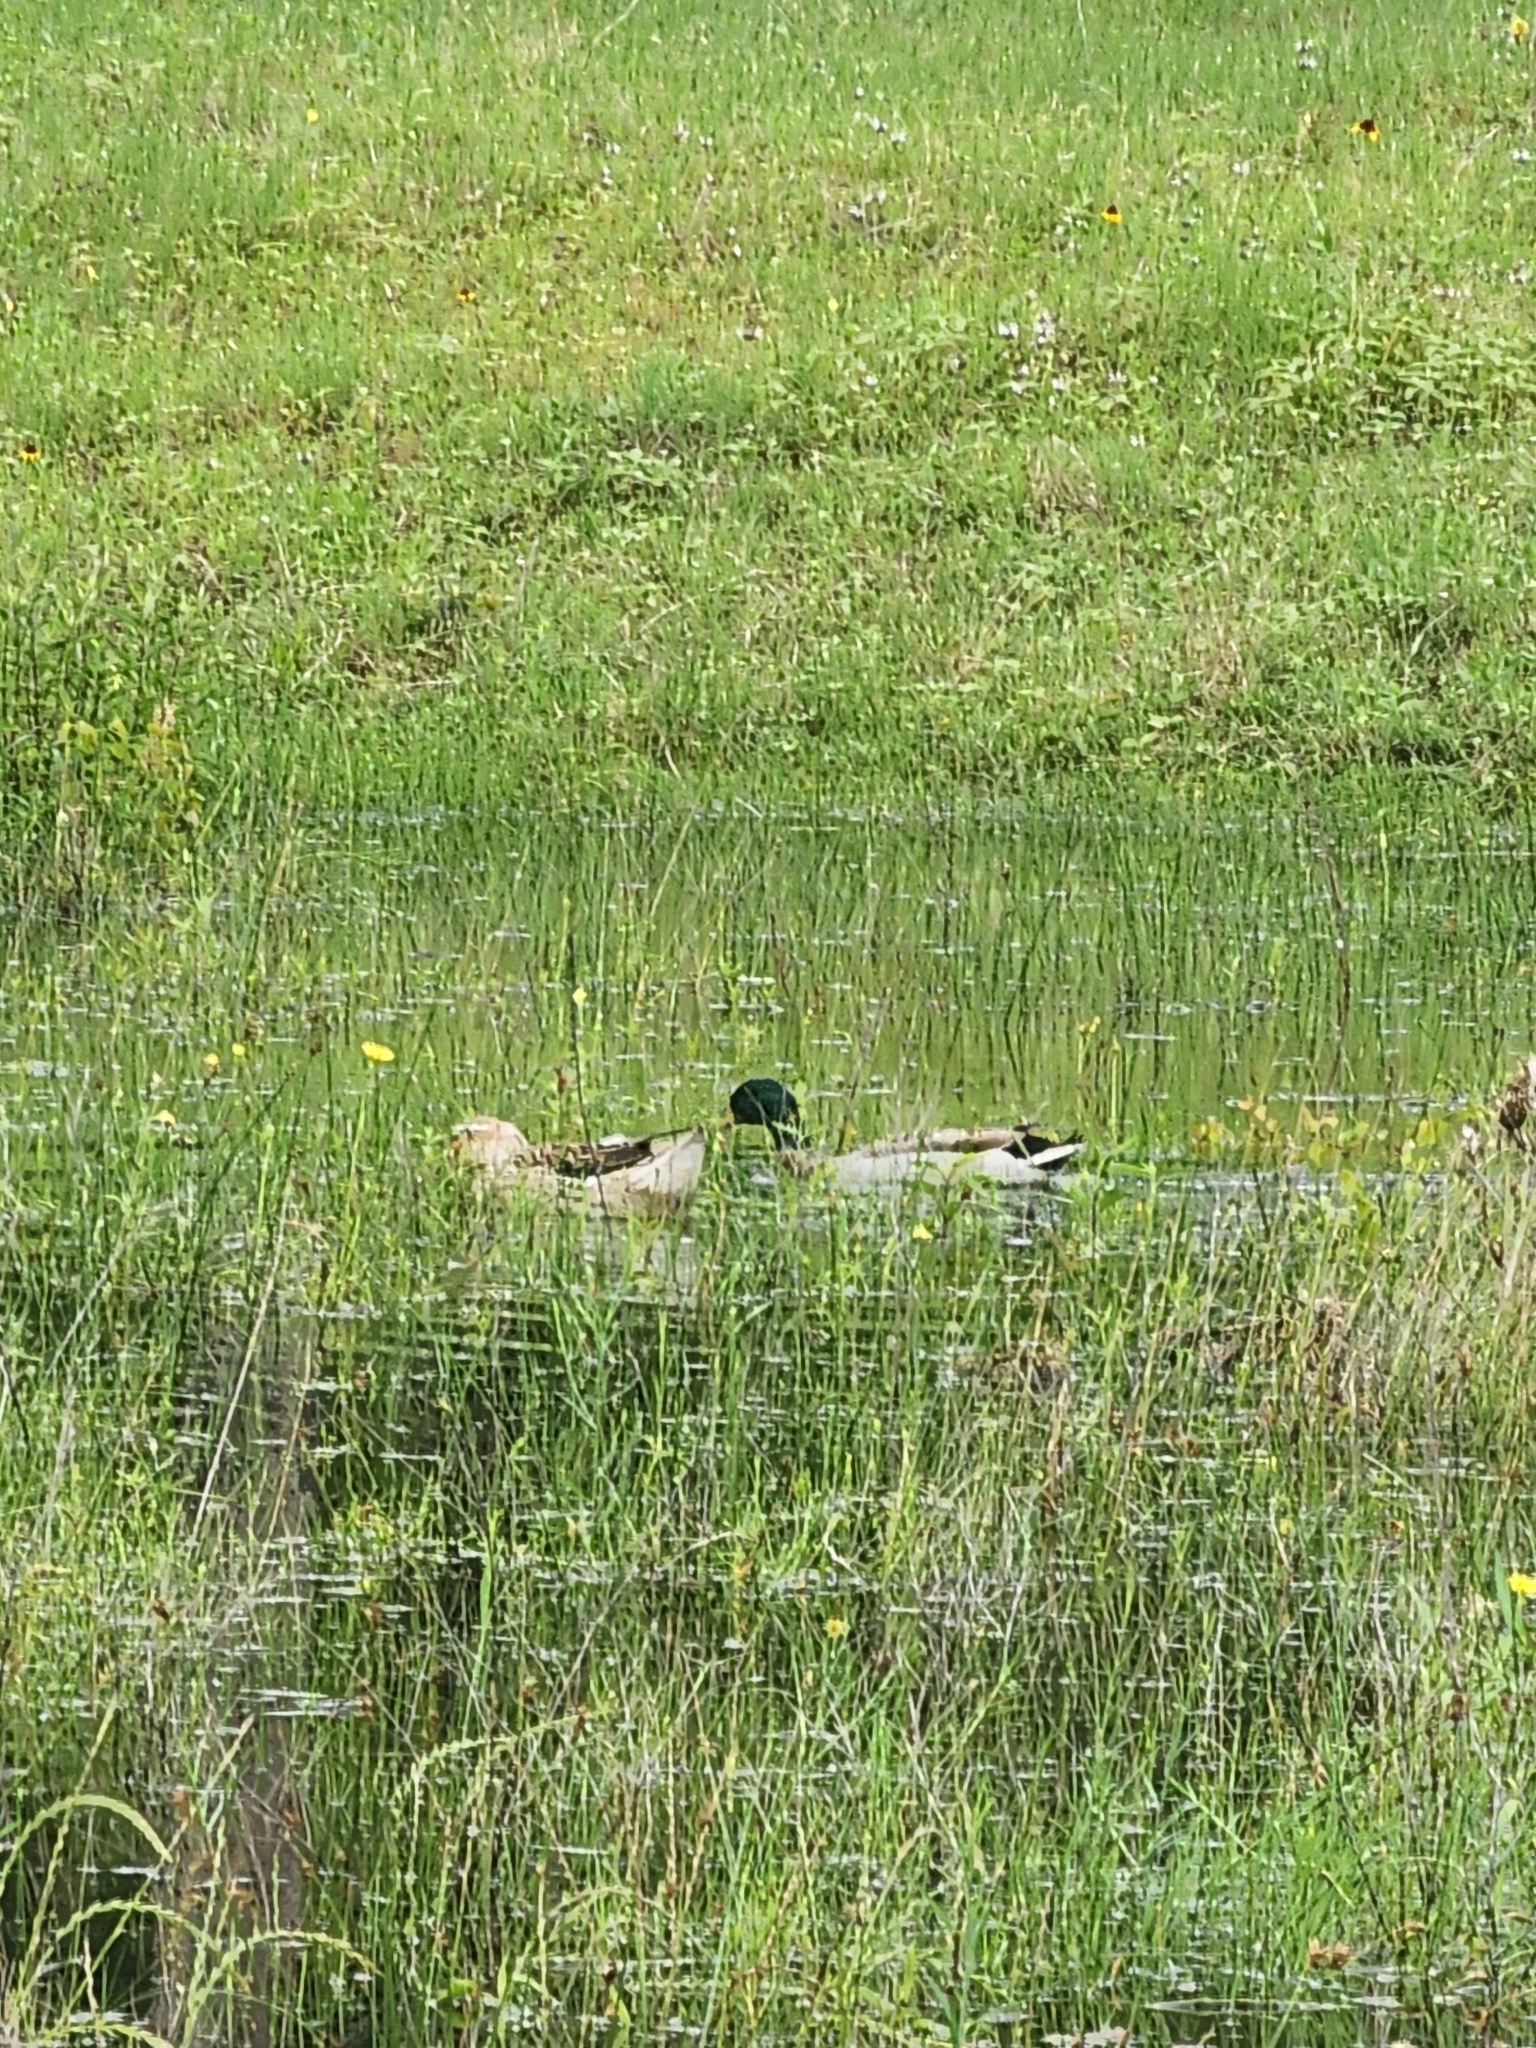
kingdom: Animalia
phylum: Chordata
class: Aves
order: Anseriformes
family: Anatidae
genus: Anas
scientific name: Anas platyrhynchos
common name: Mallard
